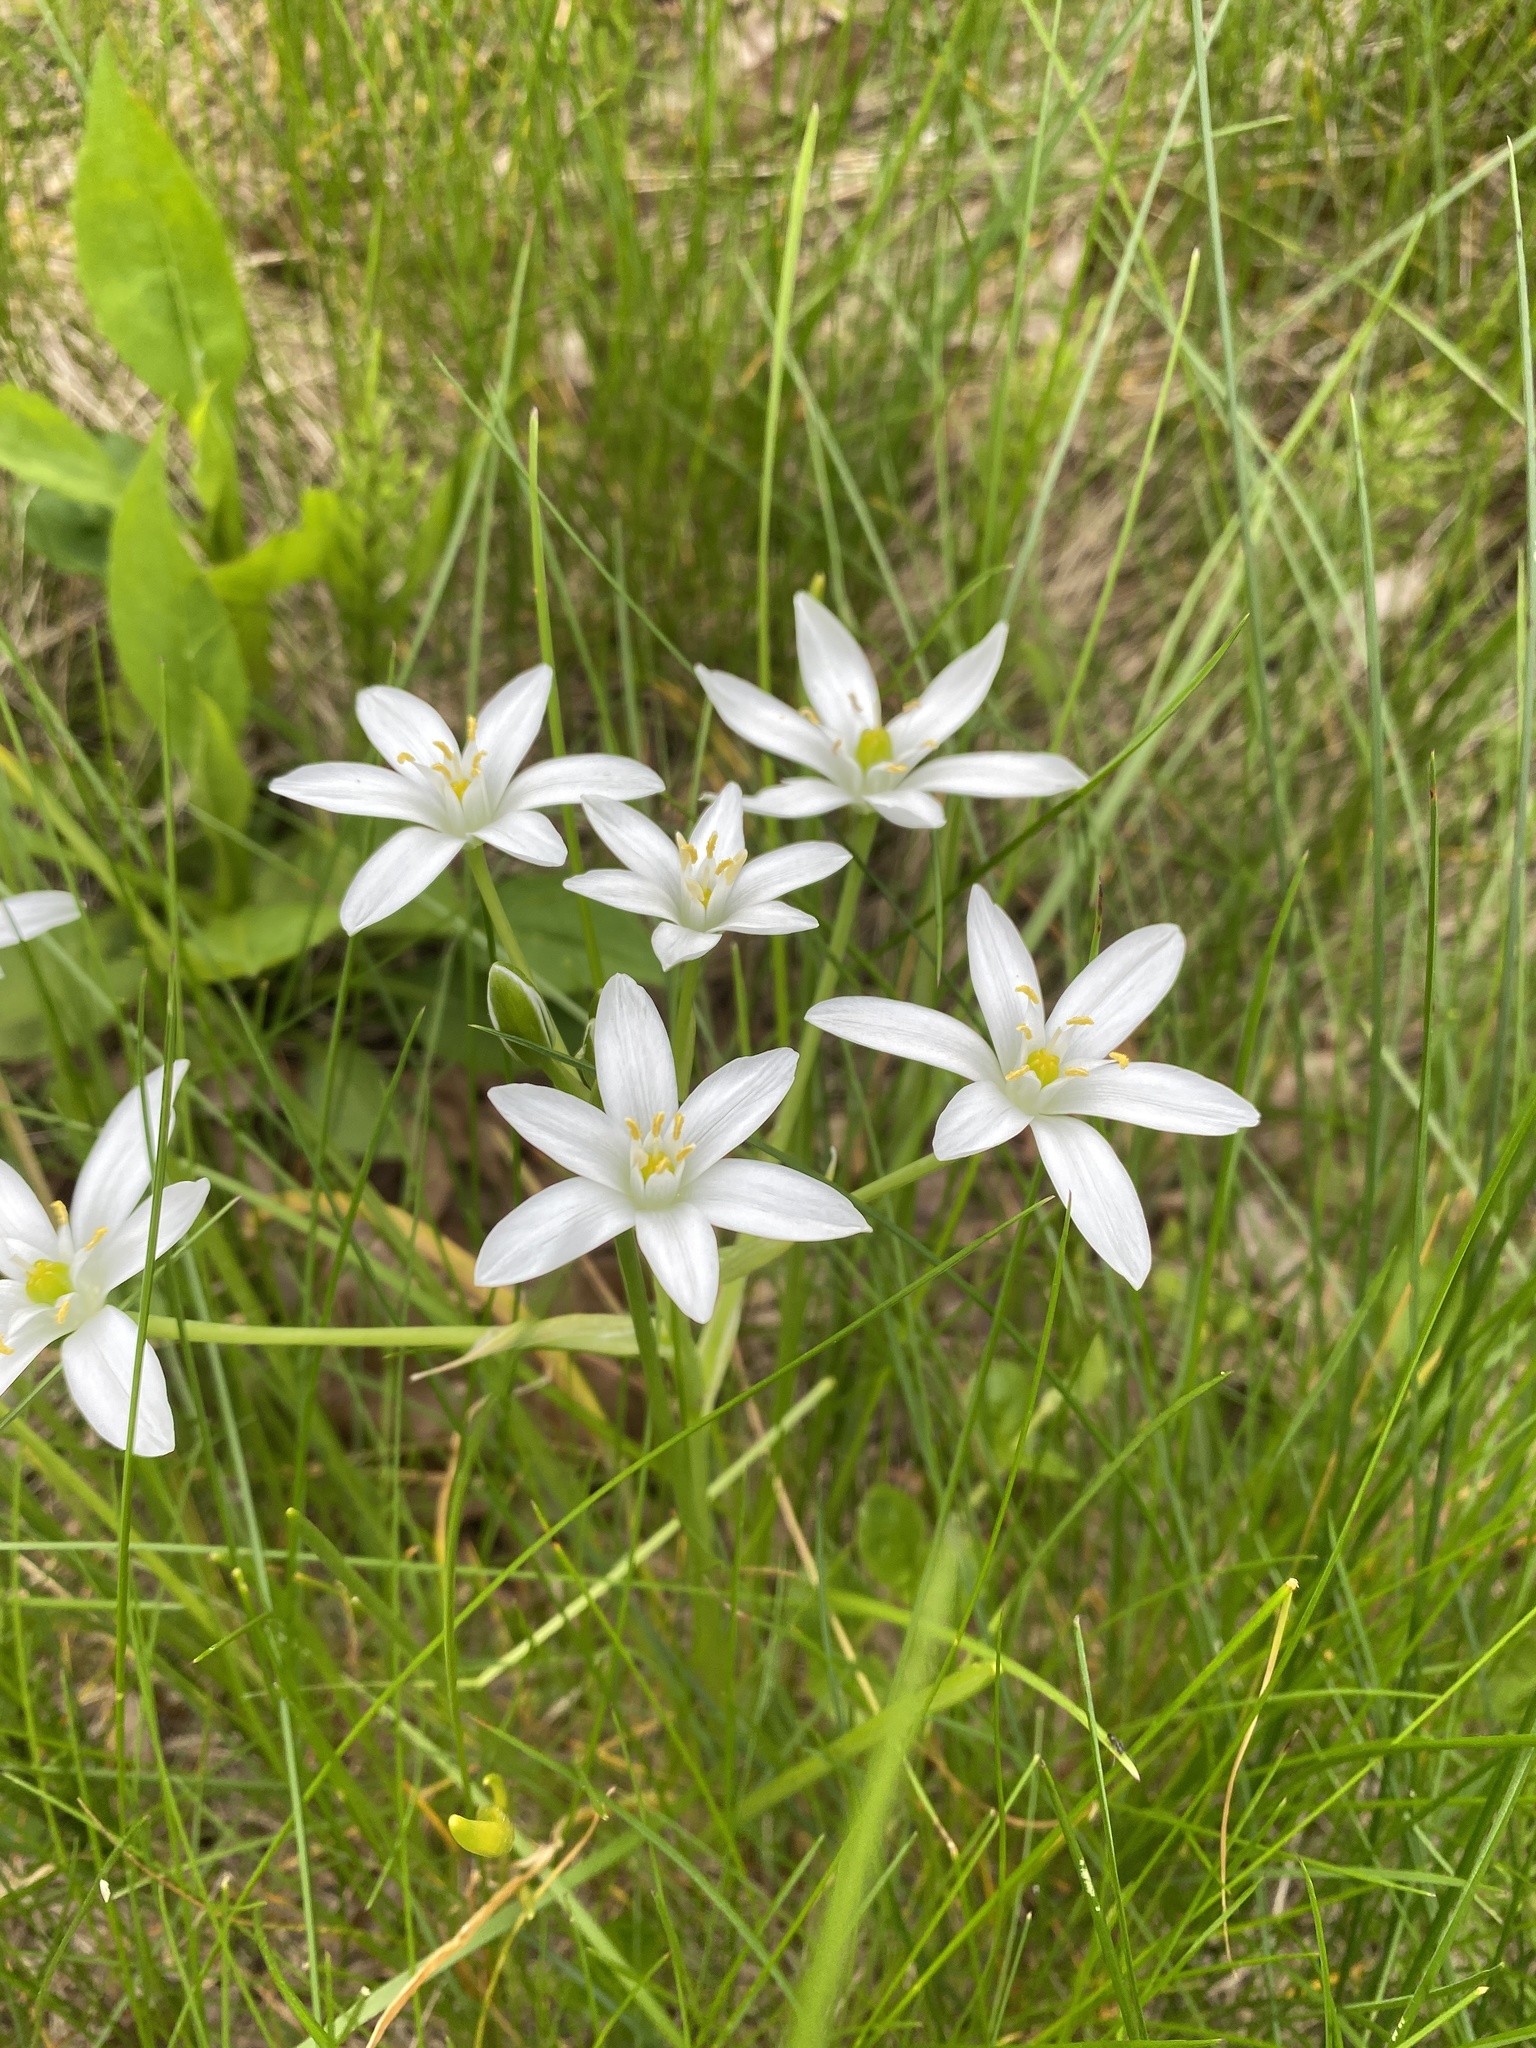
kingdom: Plantae
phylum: Tracheophyta
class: Liliopsida
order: Asparagales
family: Asparagaceae
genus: Ornithogalum
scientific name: Ornithogalum umbellatum
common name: Garden star-of-bethlehem
